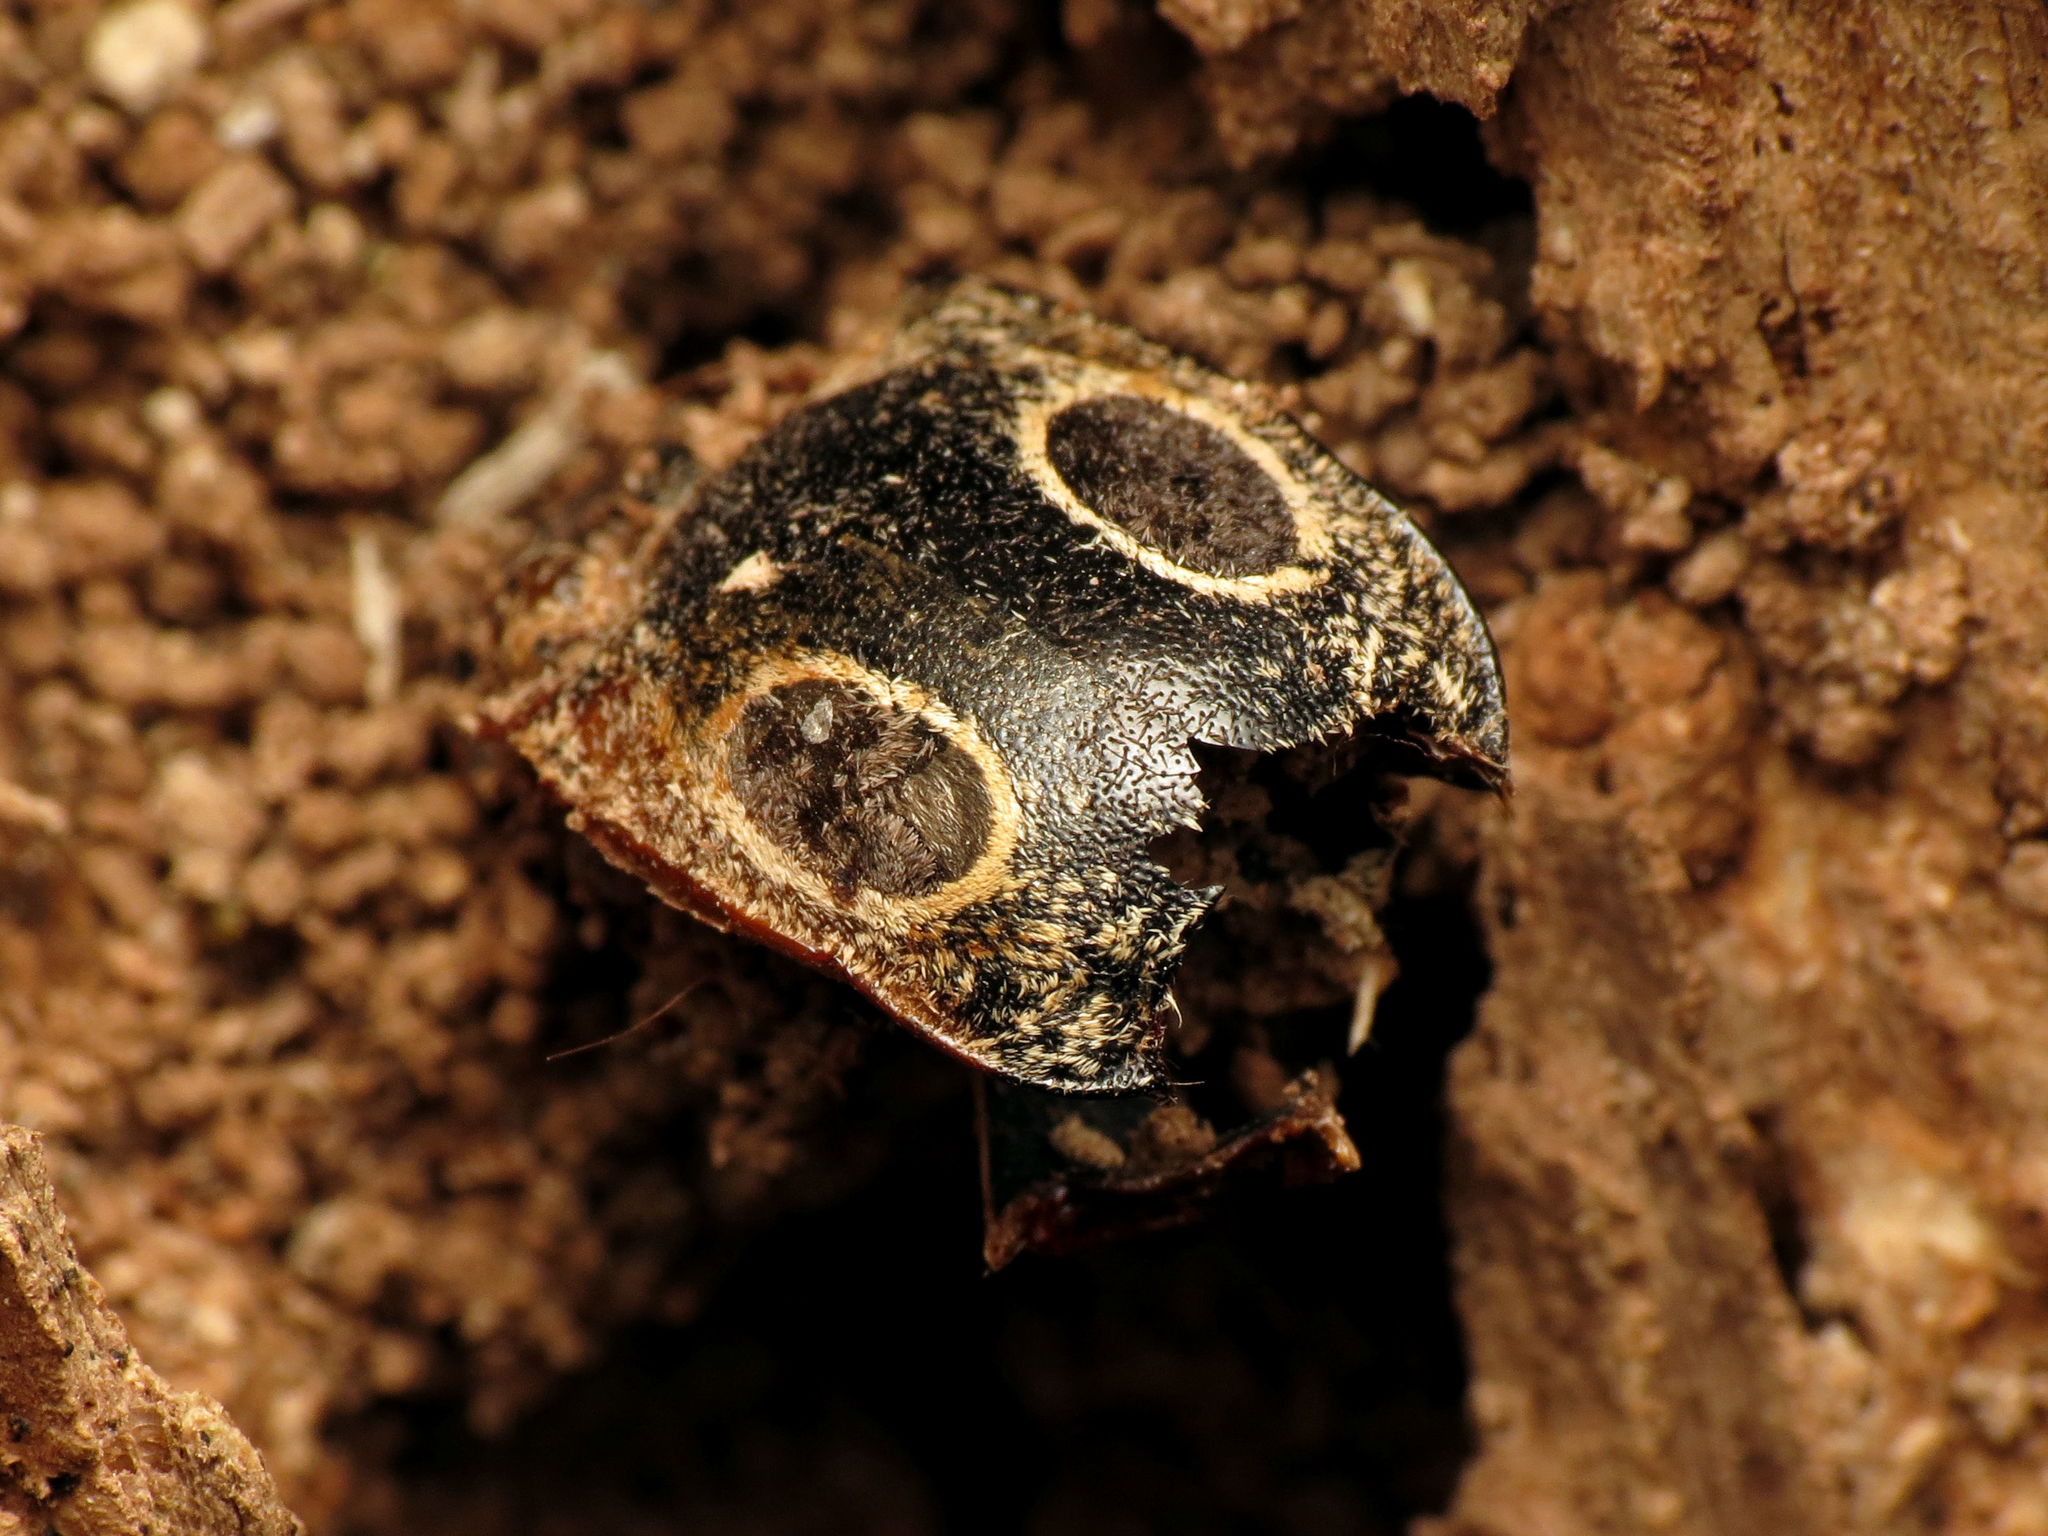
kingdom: Animalia
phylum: Arthropoda
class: Insecta
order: Coleoptera
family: Elateridae
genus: Alaus
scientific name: Alaus oculatus
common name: Eastern eyed click beetle
